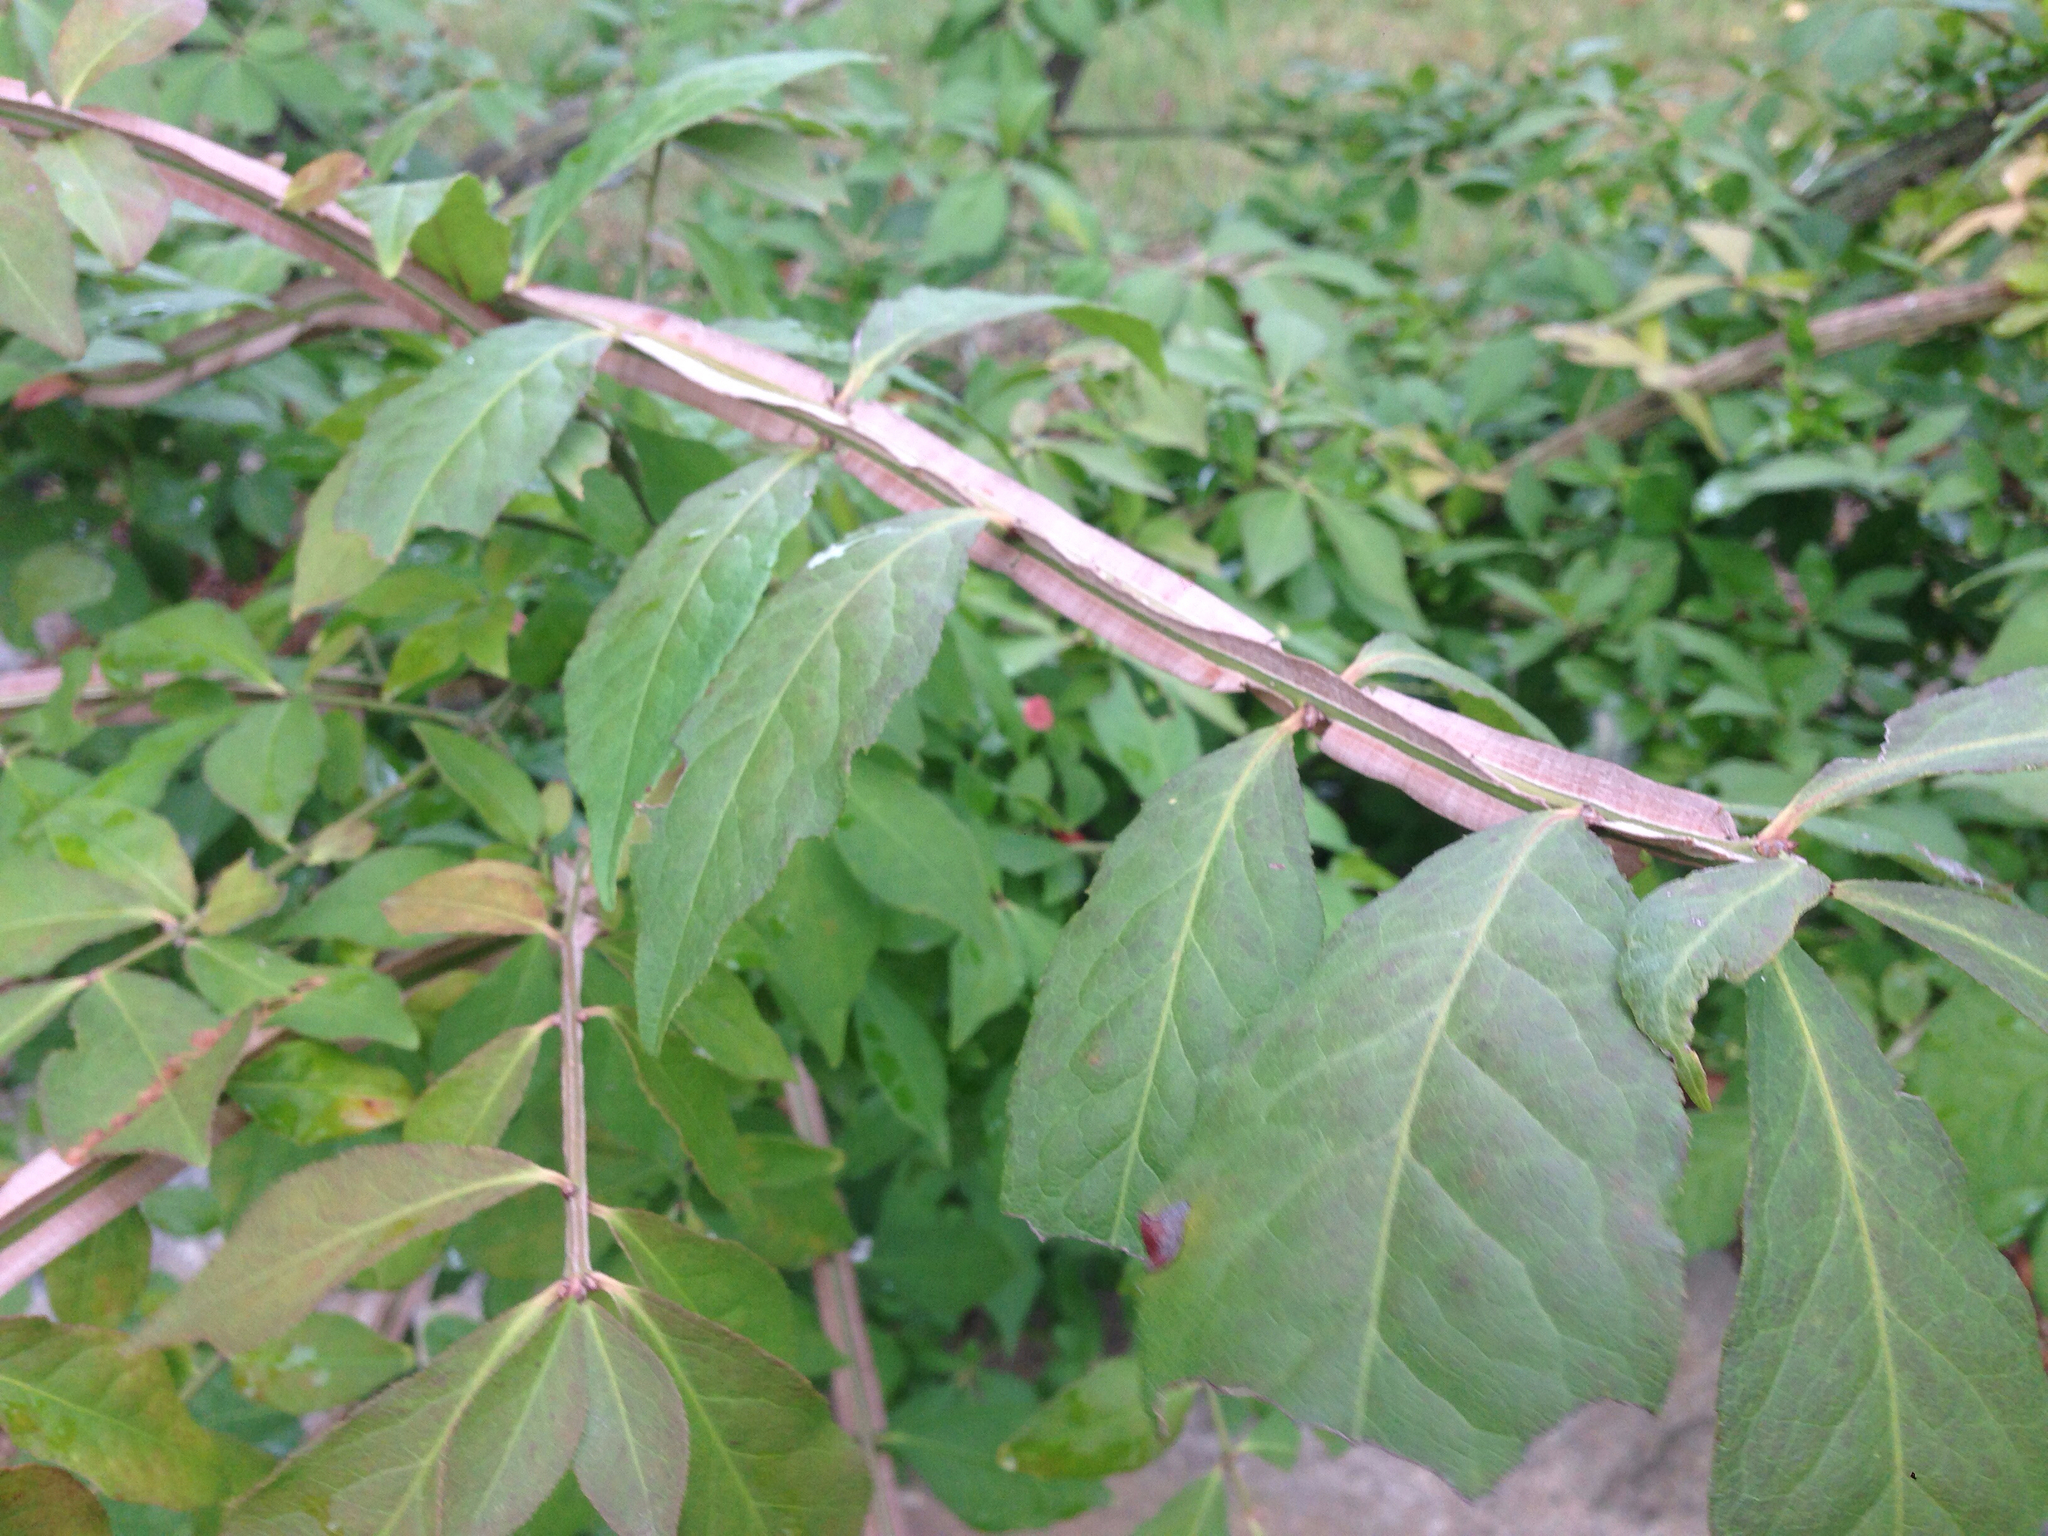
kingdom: Plantae
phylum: Tracheophyta
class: Magnoliopsida
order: Celastrales
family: Celastraceae
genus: Euonymus
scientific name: Euonymus alatus
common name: Winged euonymus
